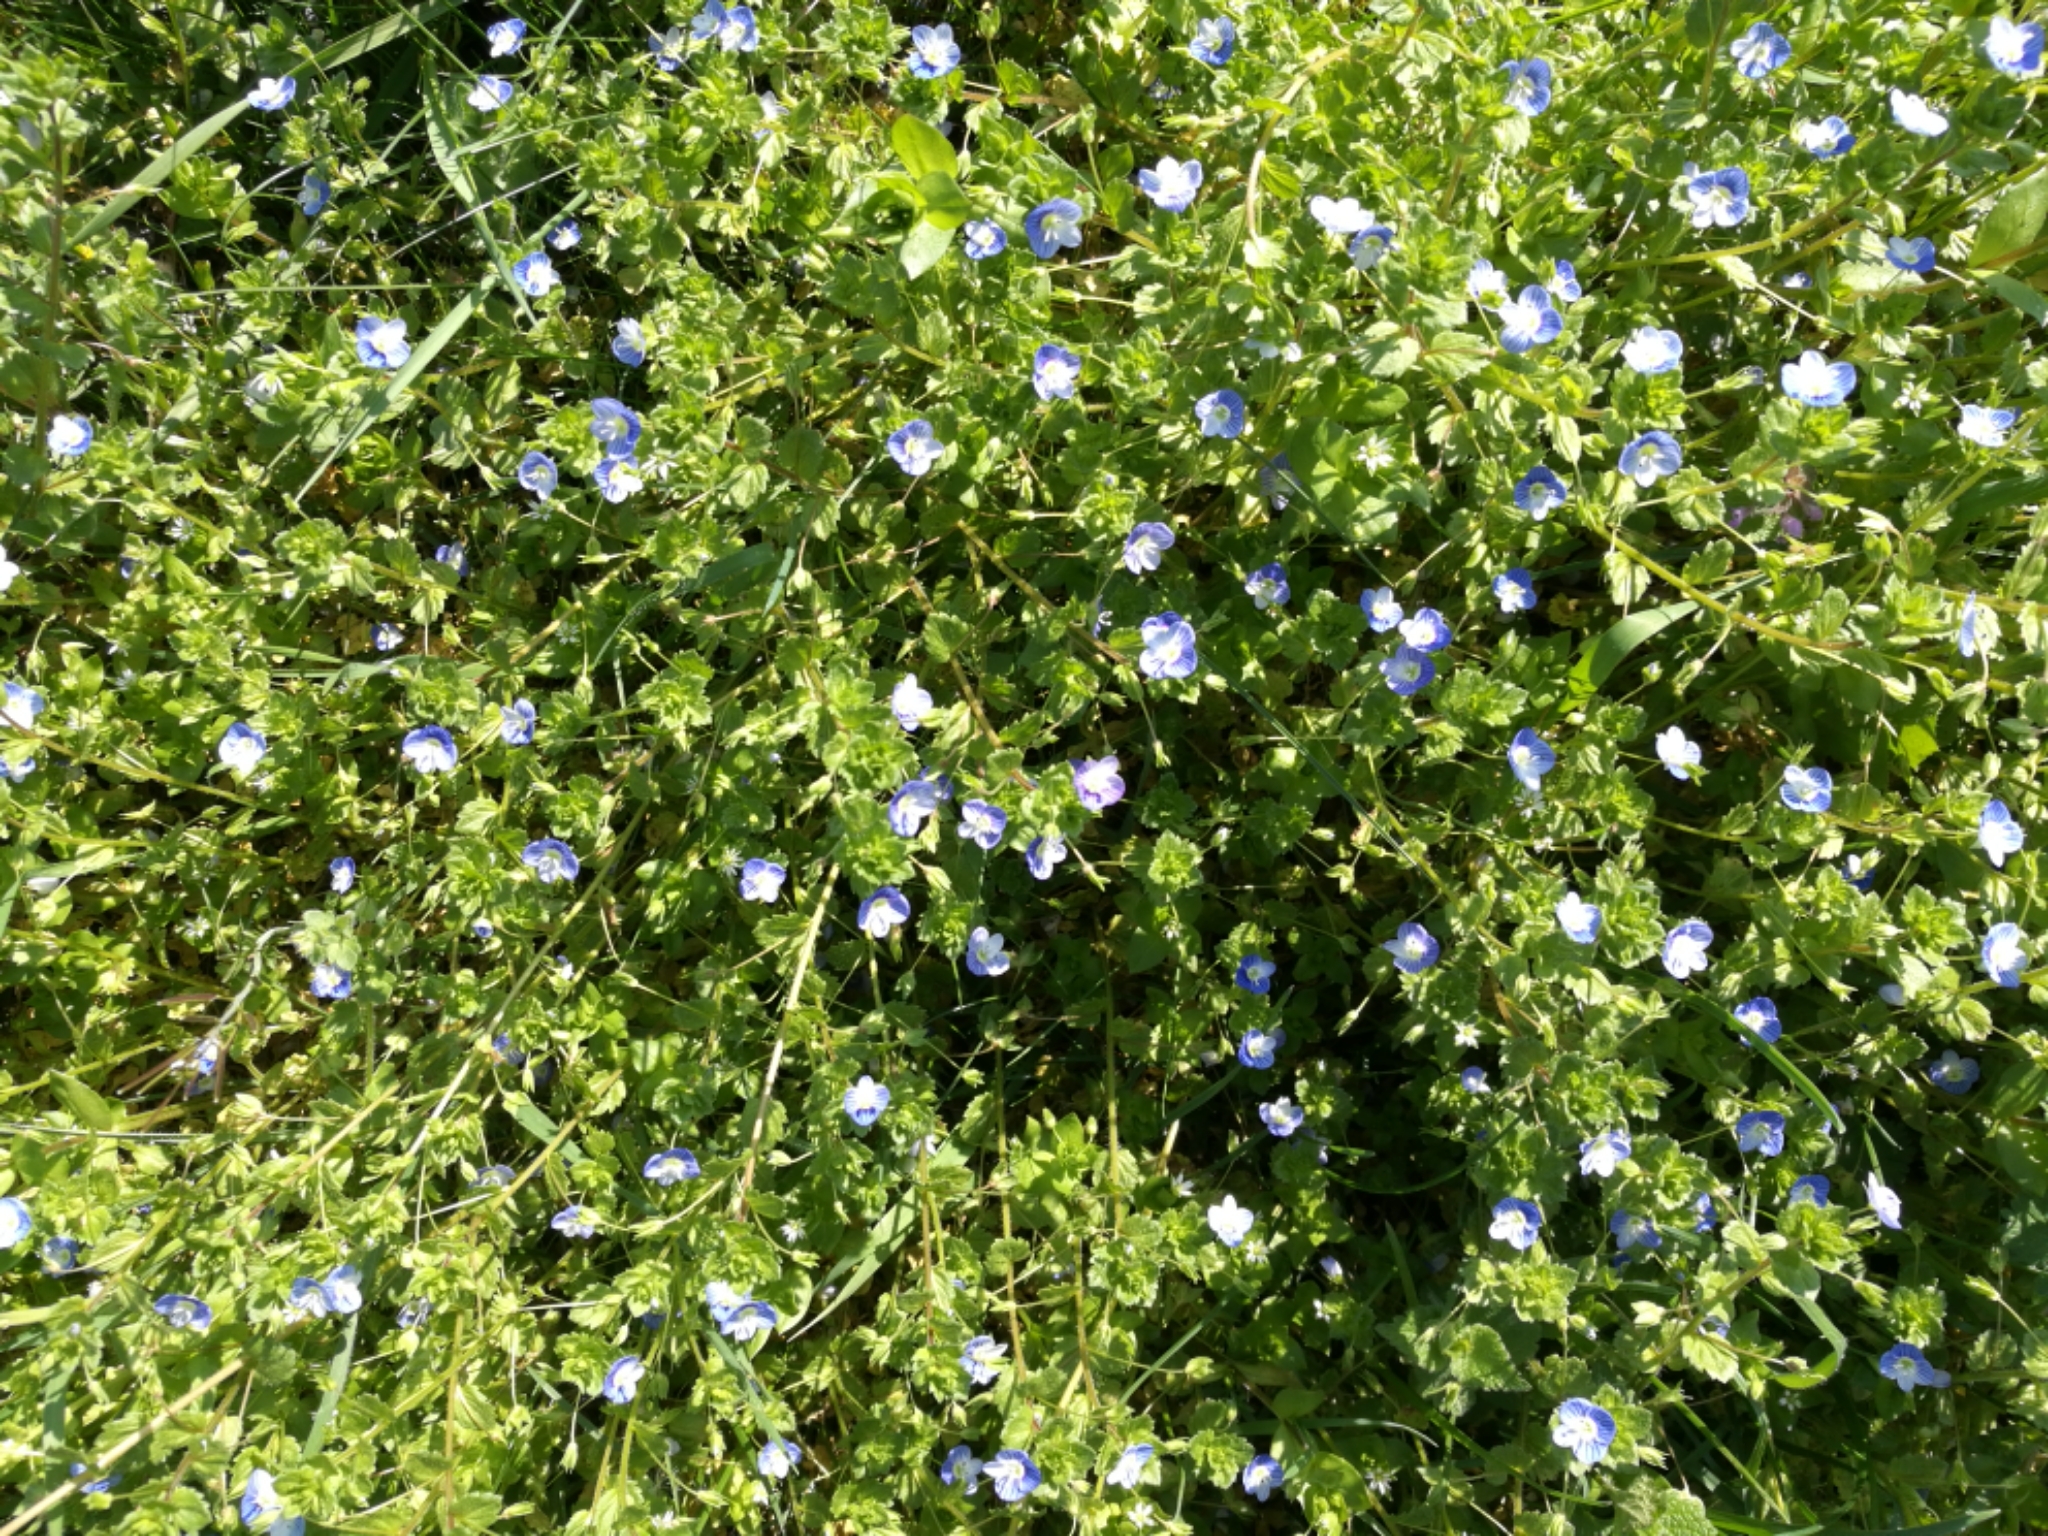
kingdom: Plantae
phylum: Tracheophyta
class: Magnoliopsida
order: Lamiales
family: Plantaginaceae
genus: Veronica
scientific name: Veronica persica
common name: Common field-speedwell
